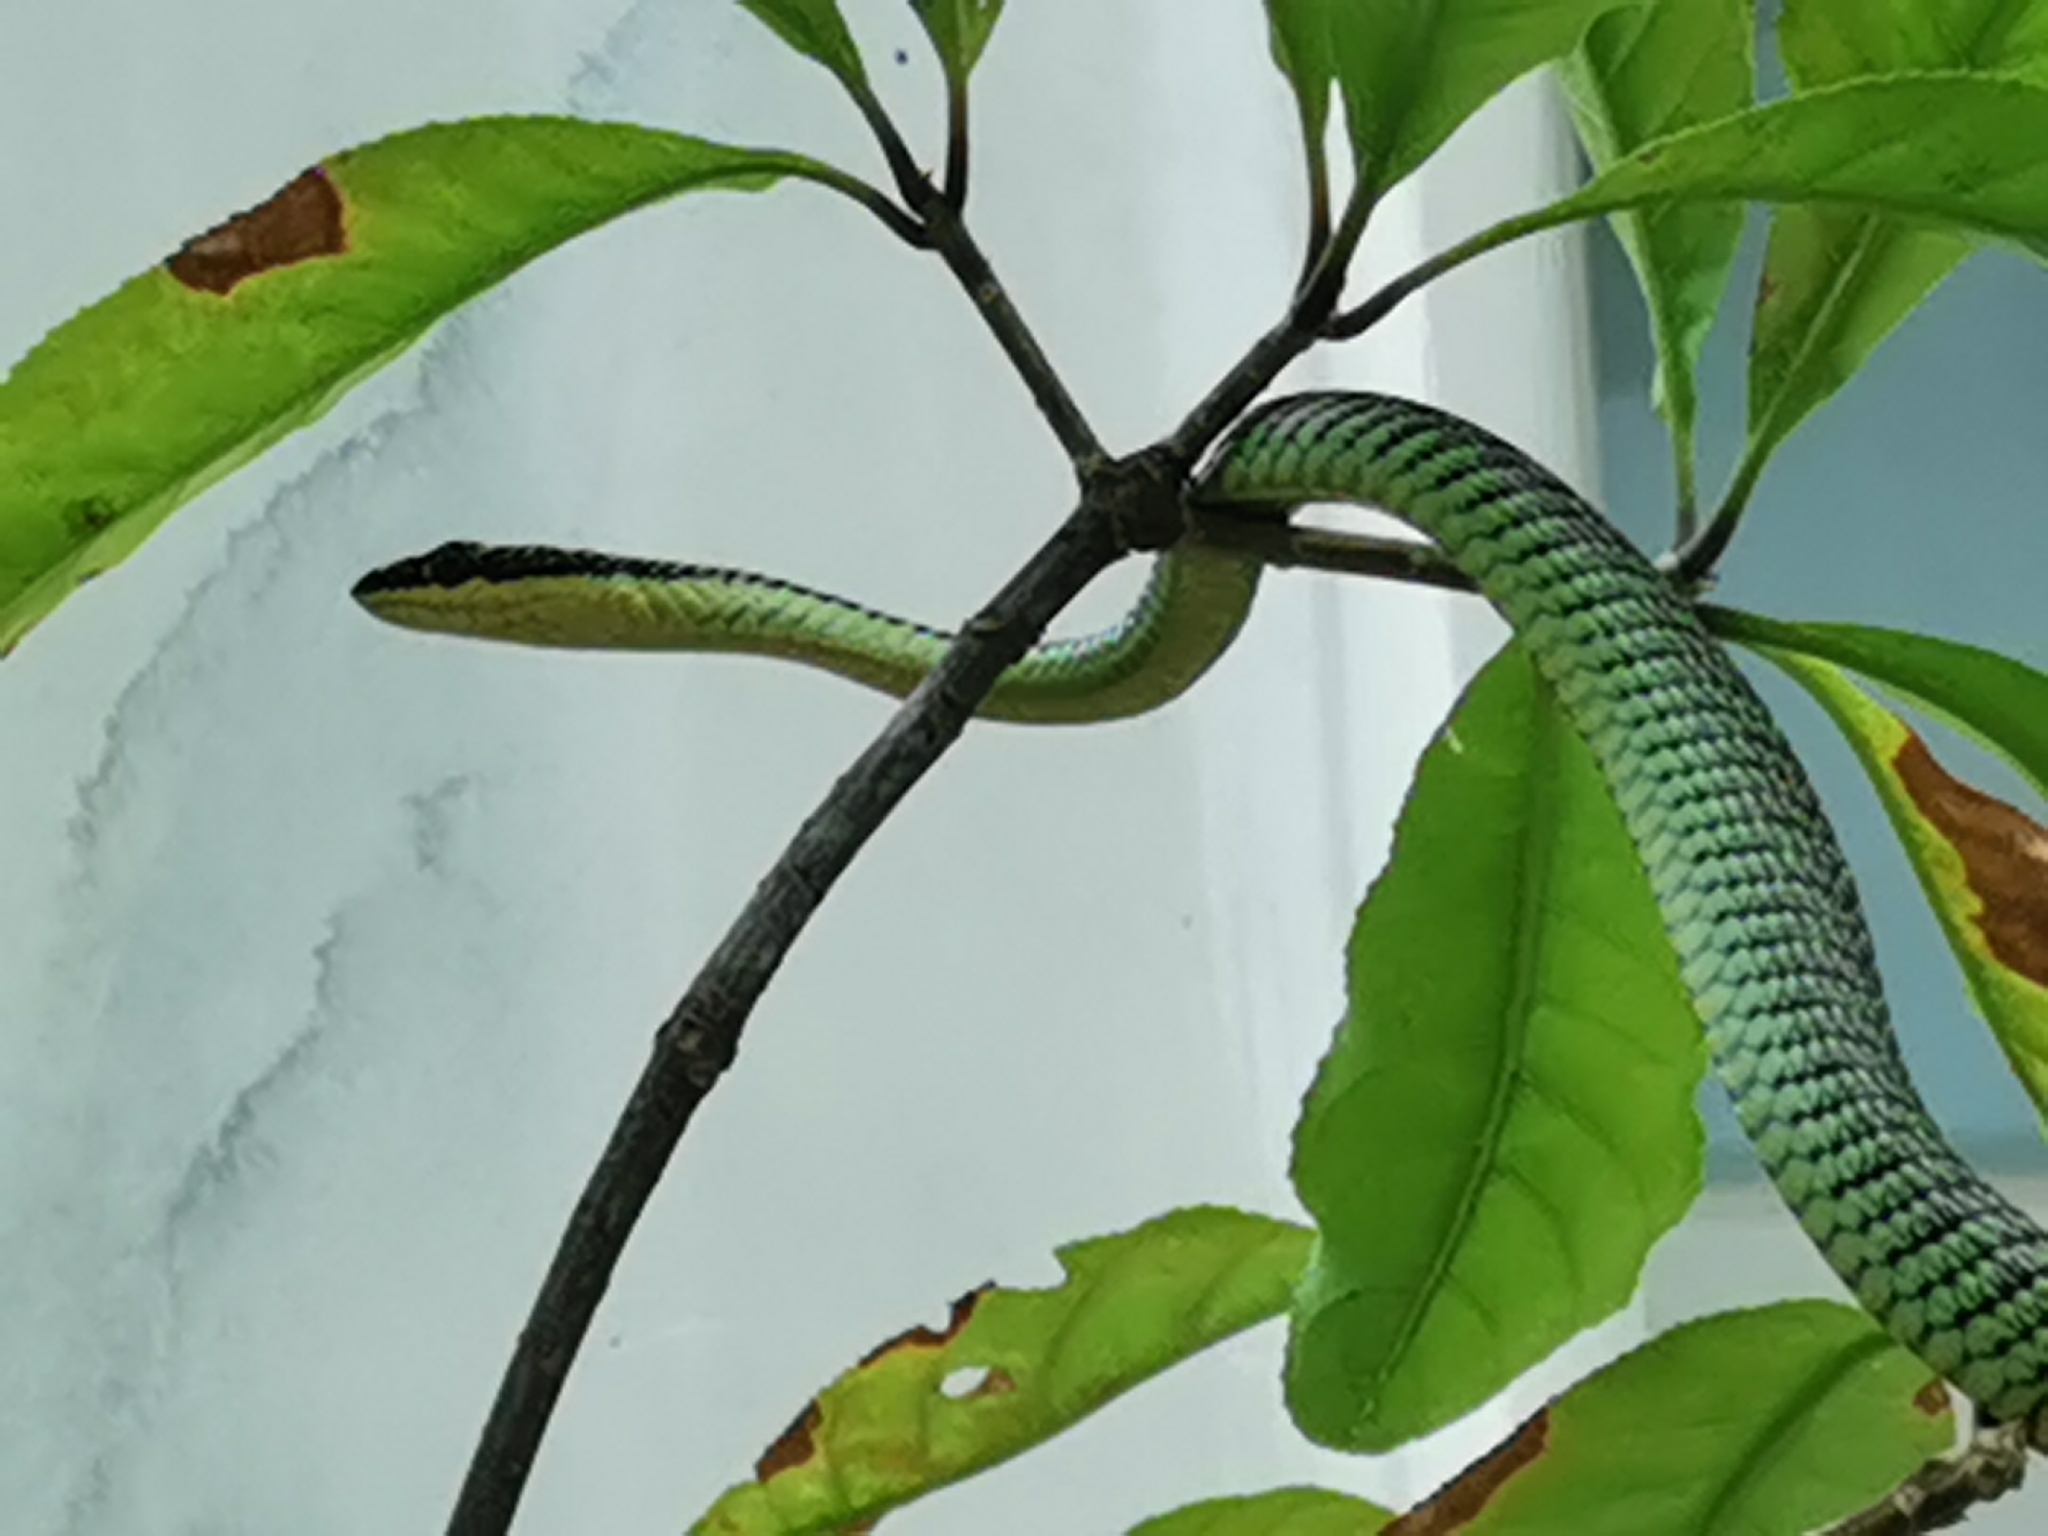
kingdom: Animalia
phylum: Chordata
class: Squamata
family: Colubridae
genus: Chrysopelea
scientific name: Chrysopelea ornata
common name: Golden flying snake
